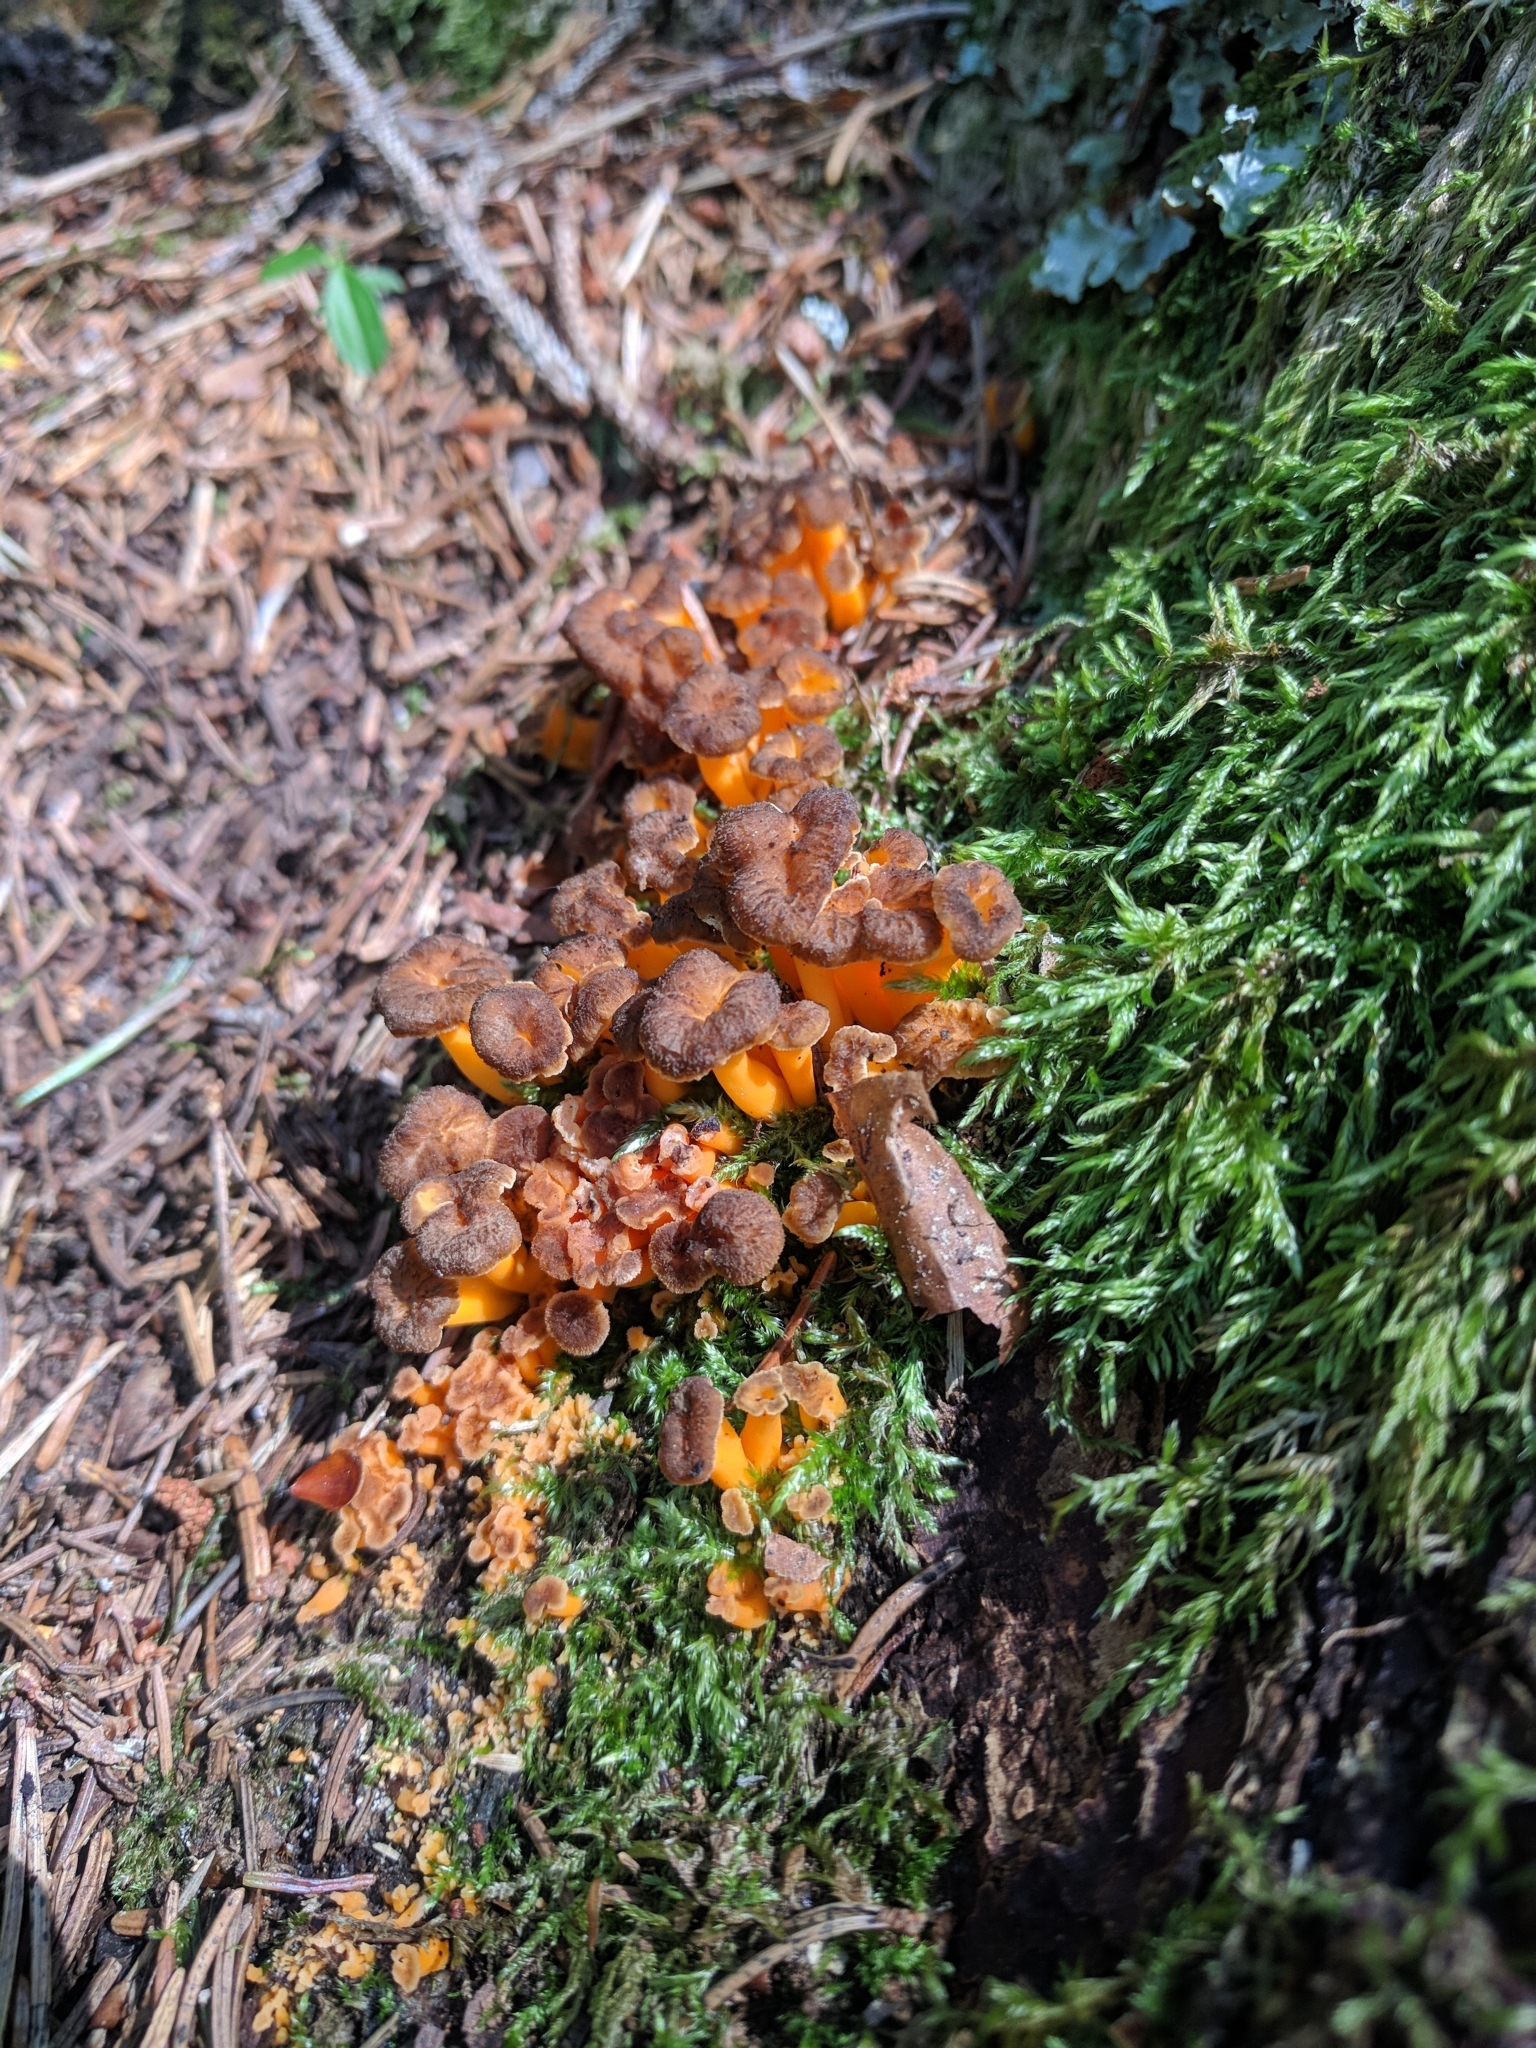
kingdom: Fungi
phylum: Basidiomycota
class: Agaricomycetes
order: Cantharellales
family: Hydnaceae
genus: Craterellus
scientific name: Craterellus lutescens
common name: Golden chanterelle
